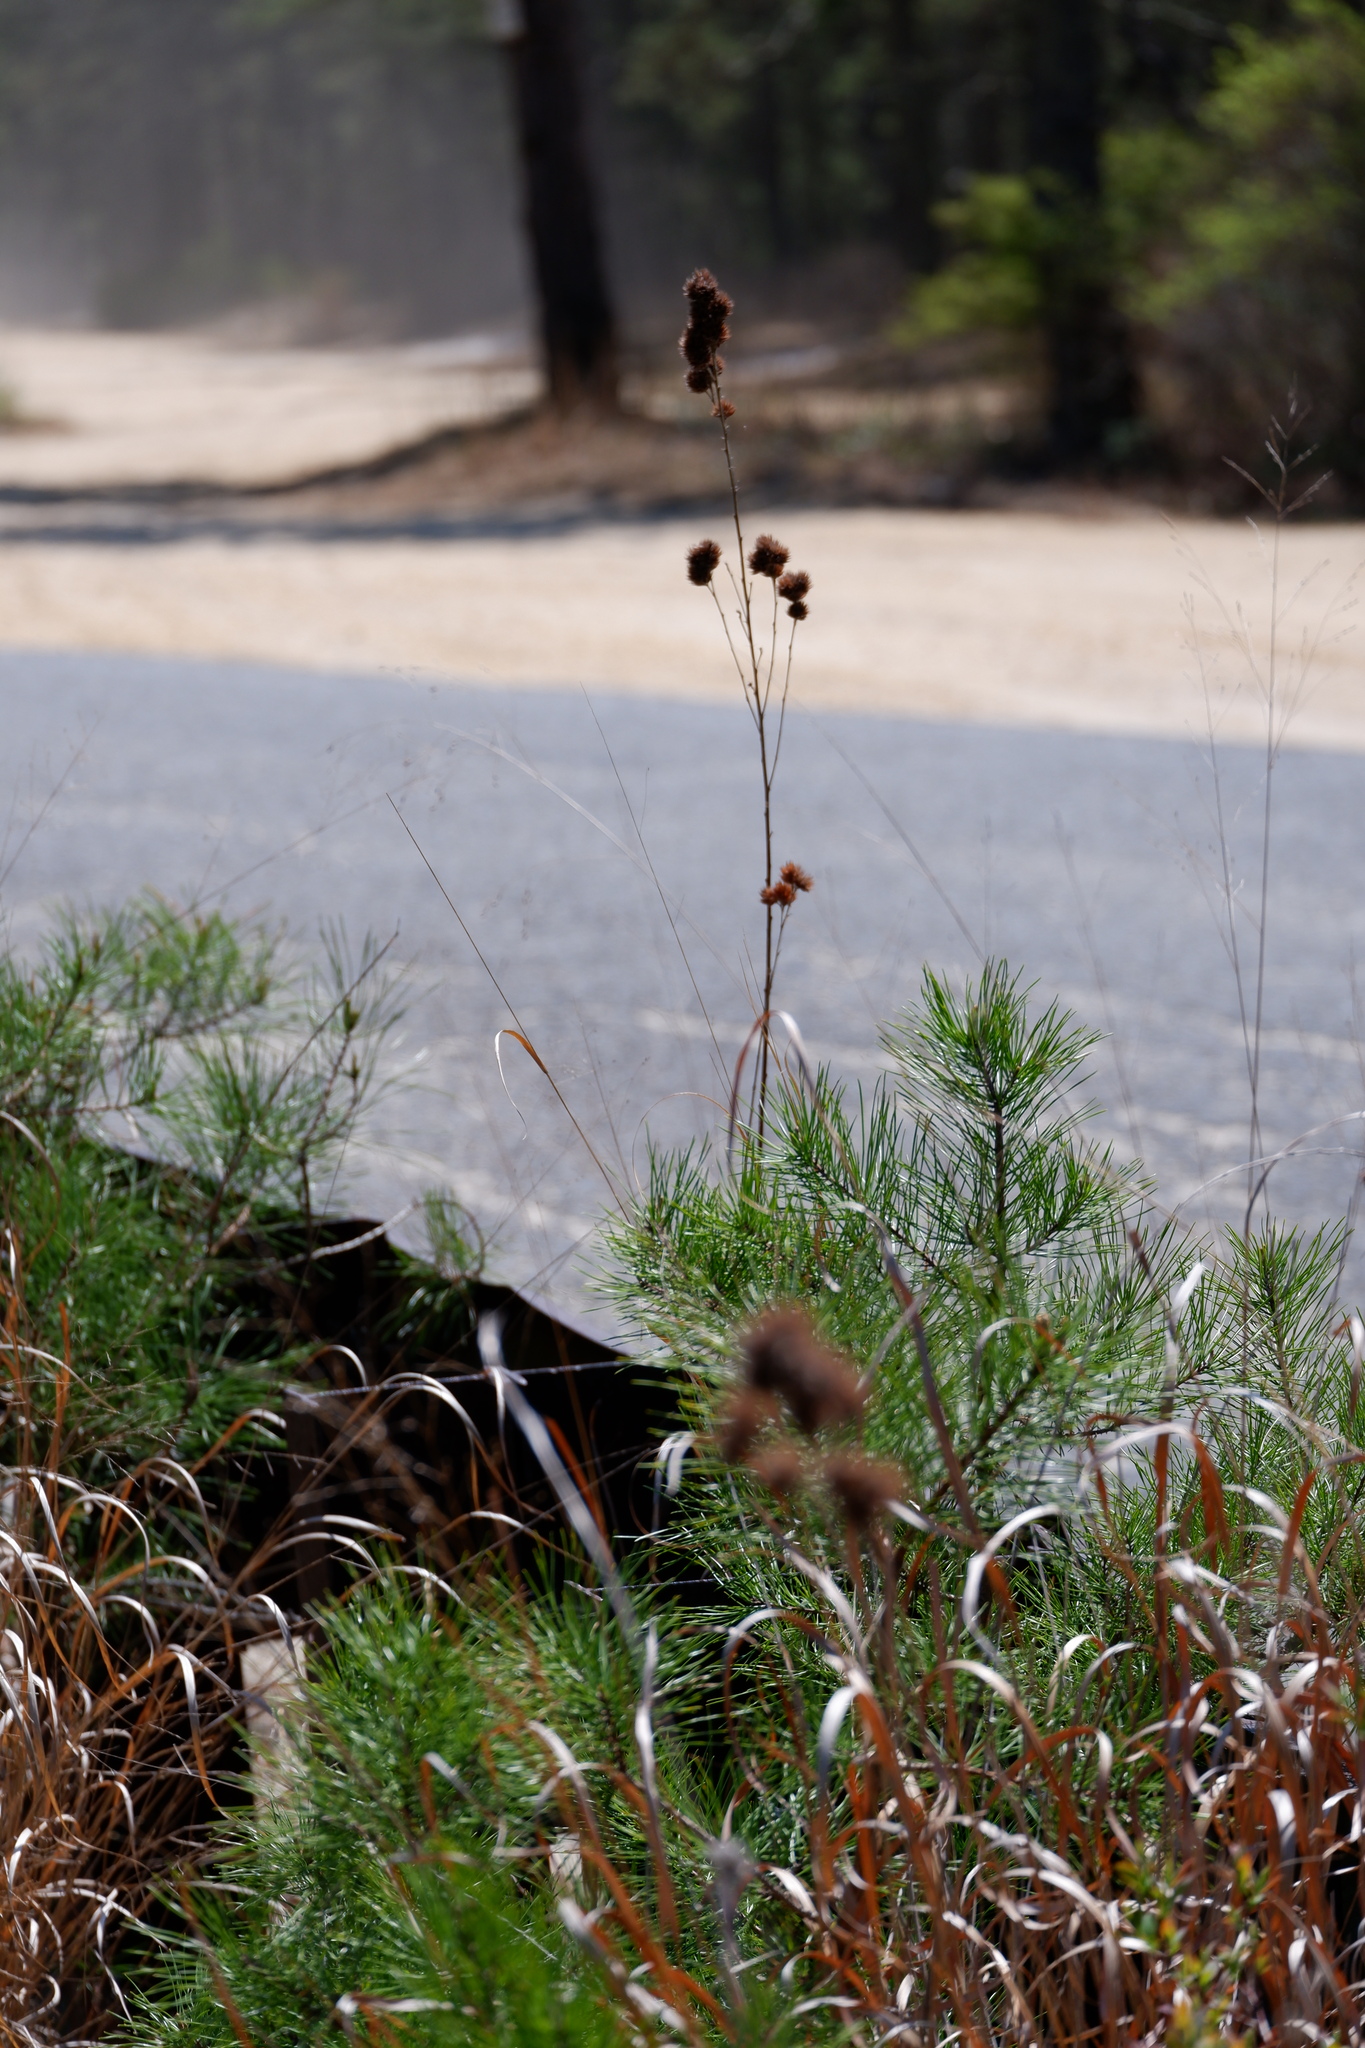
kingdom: Plantae
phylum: Tracheophyta
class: Magnoliopsida
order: Fabales
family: Fabaceae
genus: Lespedeza
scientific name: Lespedeza capitata
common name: Dusty clover
